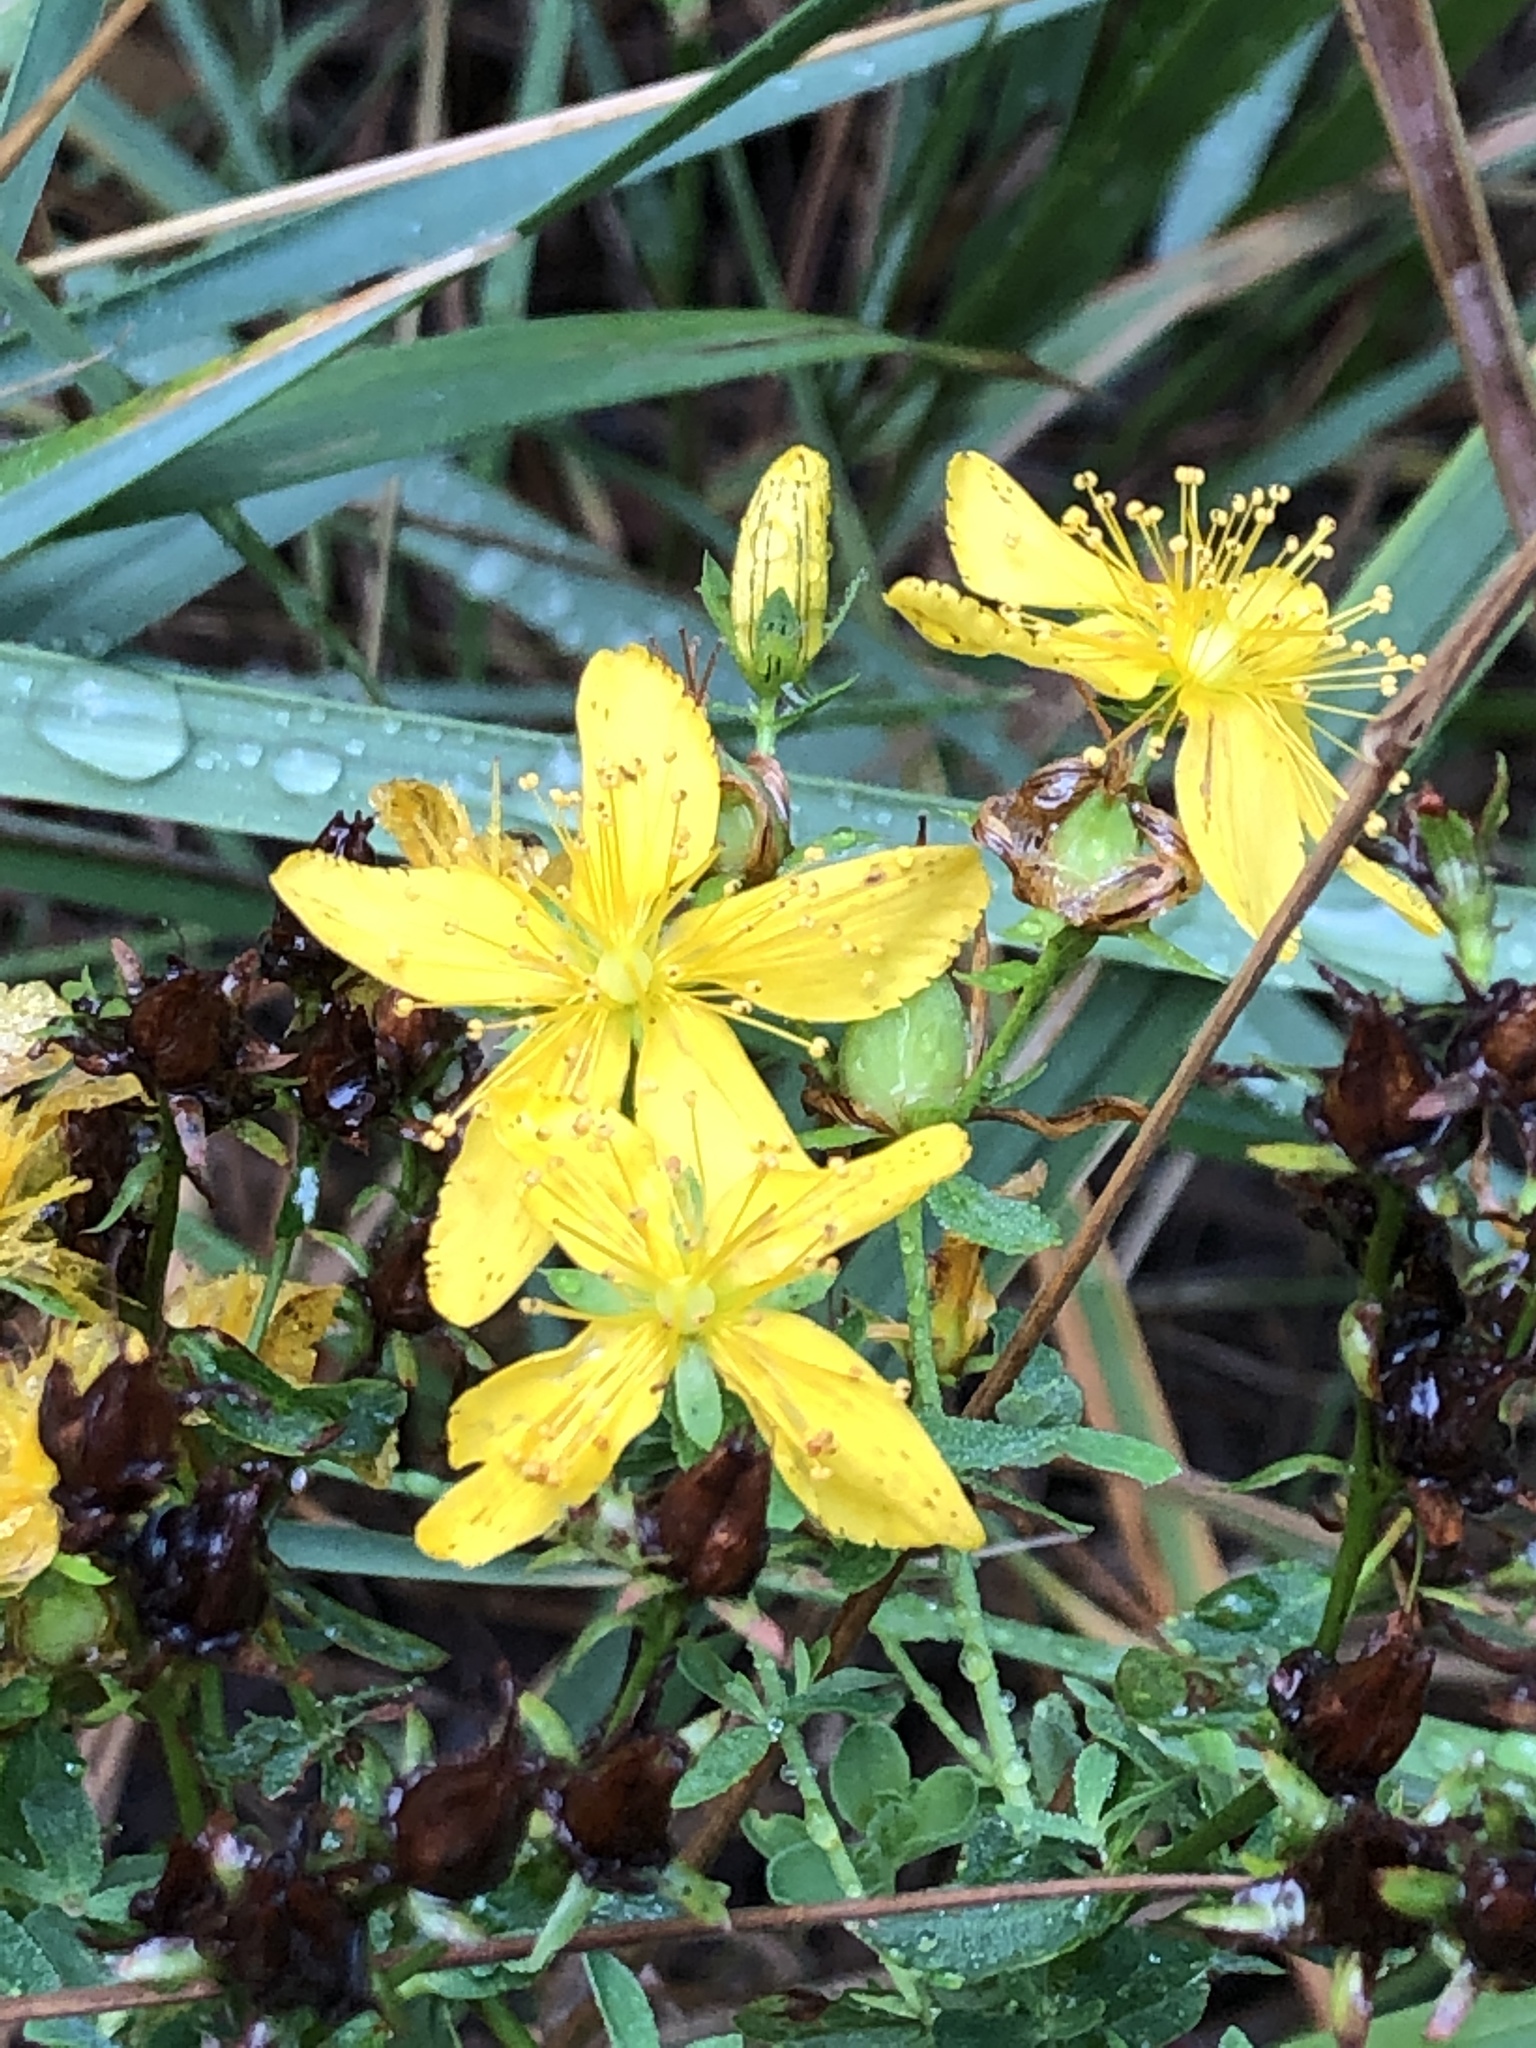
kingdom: Plantae
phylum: Tracheophyta
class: Magnoliopsida
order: Malpighiales
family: Hypericaceae
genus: Hypericum
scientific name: Hypericum perforatum
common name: Common st. johnswort
